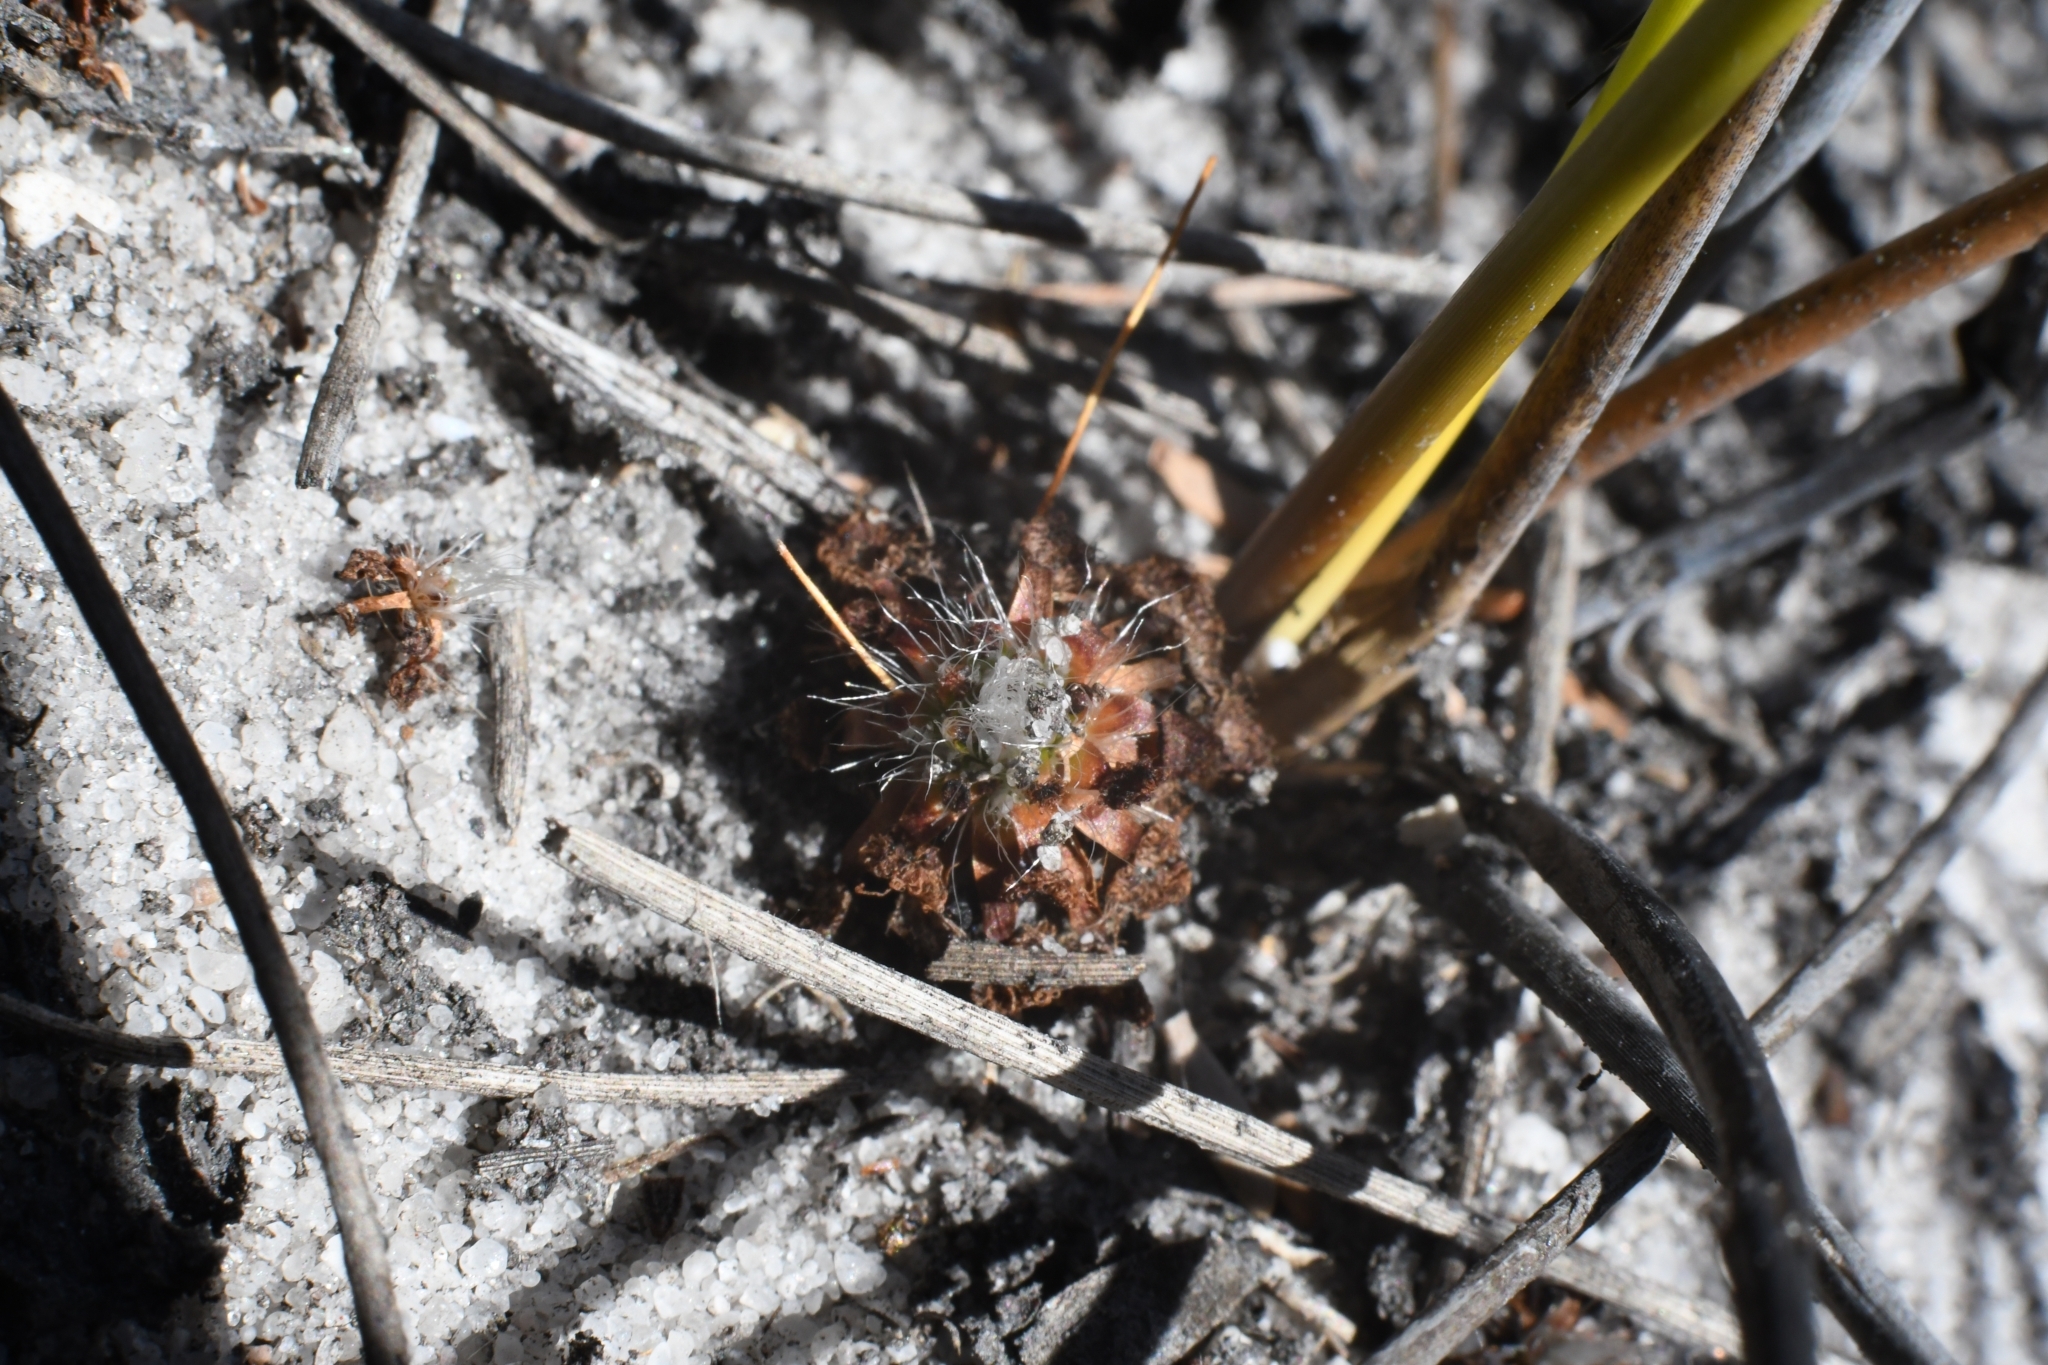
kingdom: Plantae
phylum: Tracheophyta
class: Magnoliopsida
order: Caryophyllales
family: Droseraceae
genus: Drosera
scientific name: Drosera pulchella
